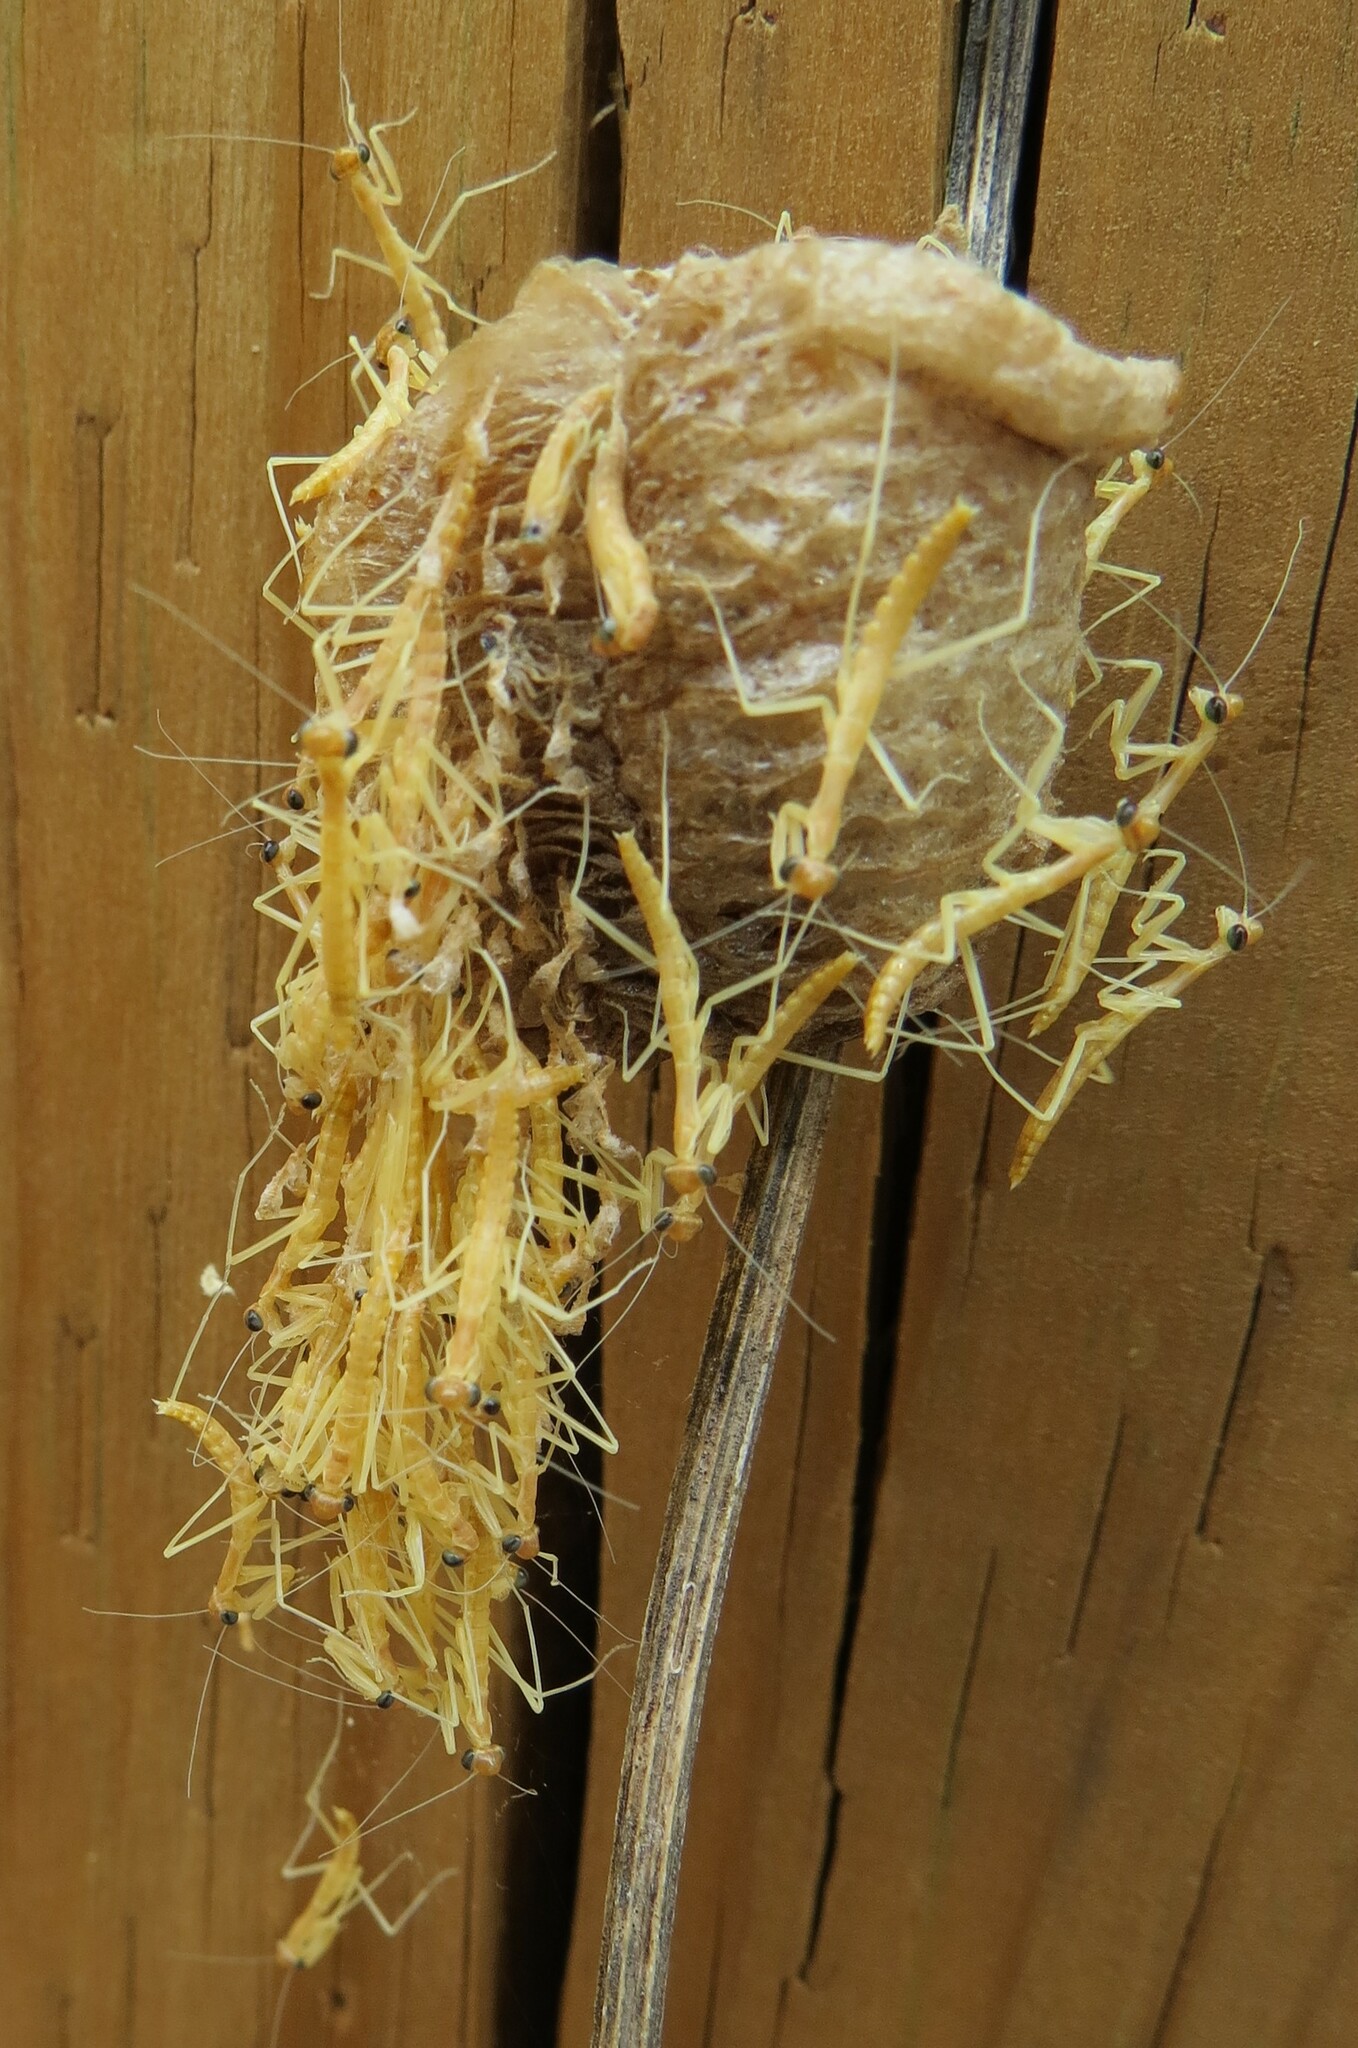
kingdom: Animalia
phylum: Arthropoda
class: Insecta
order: Mantodea
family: Mantidae
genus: Tenodera
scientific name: Tenodera sinensis
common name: Chinese mantis
